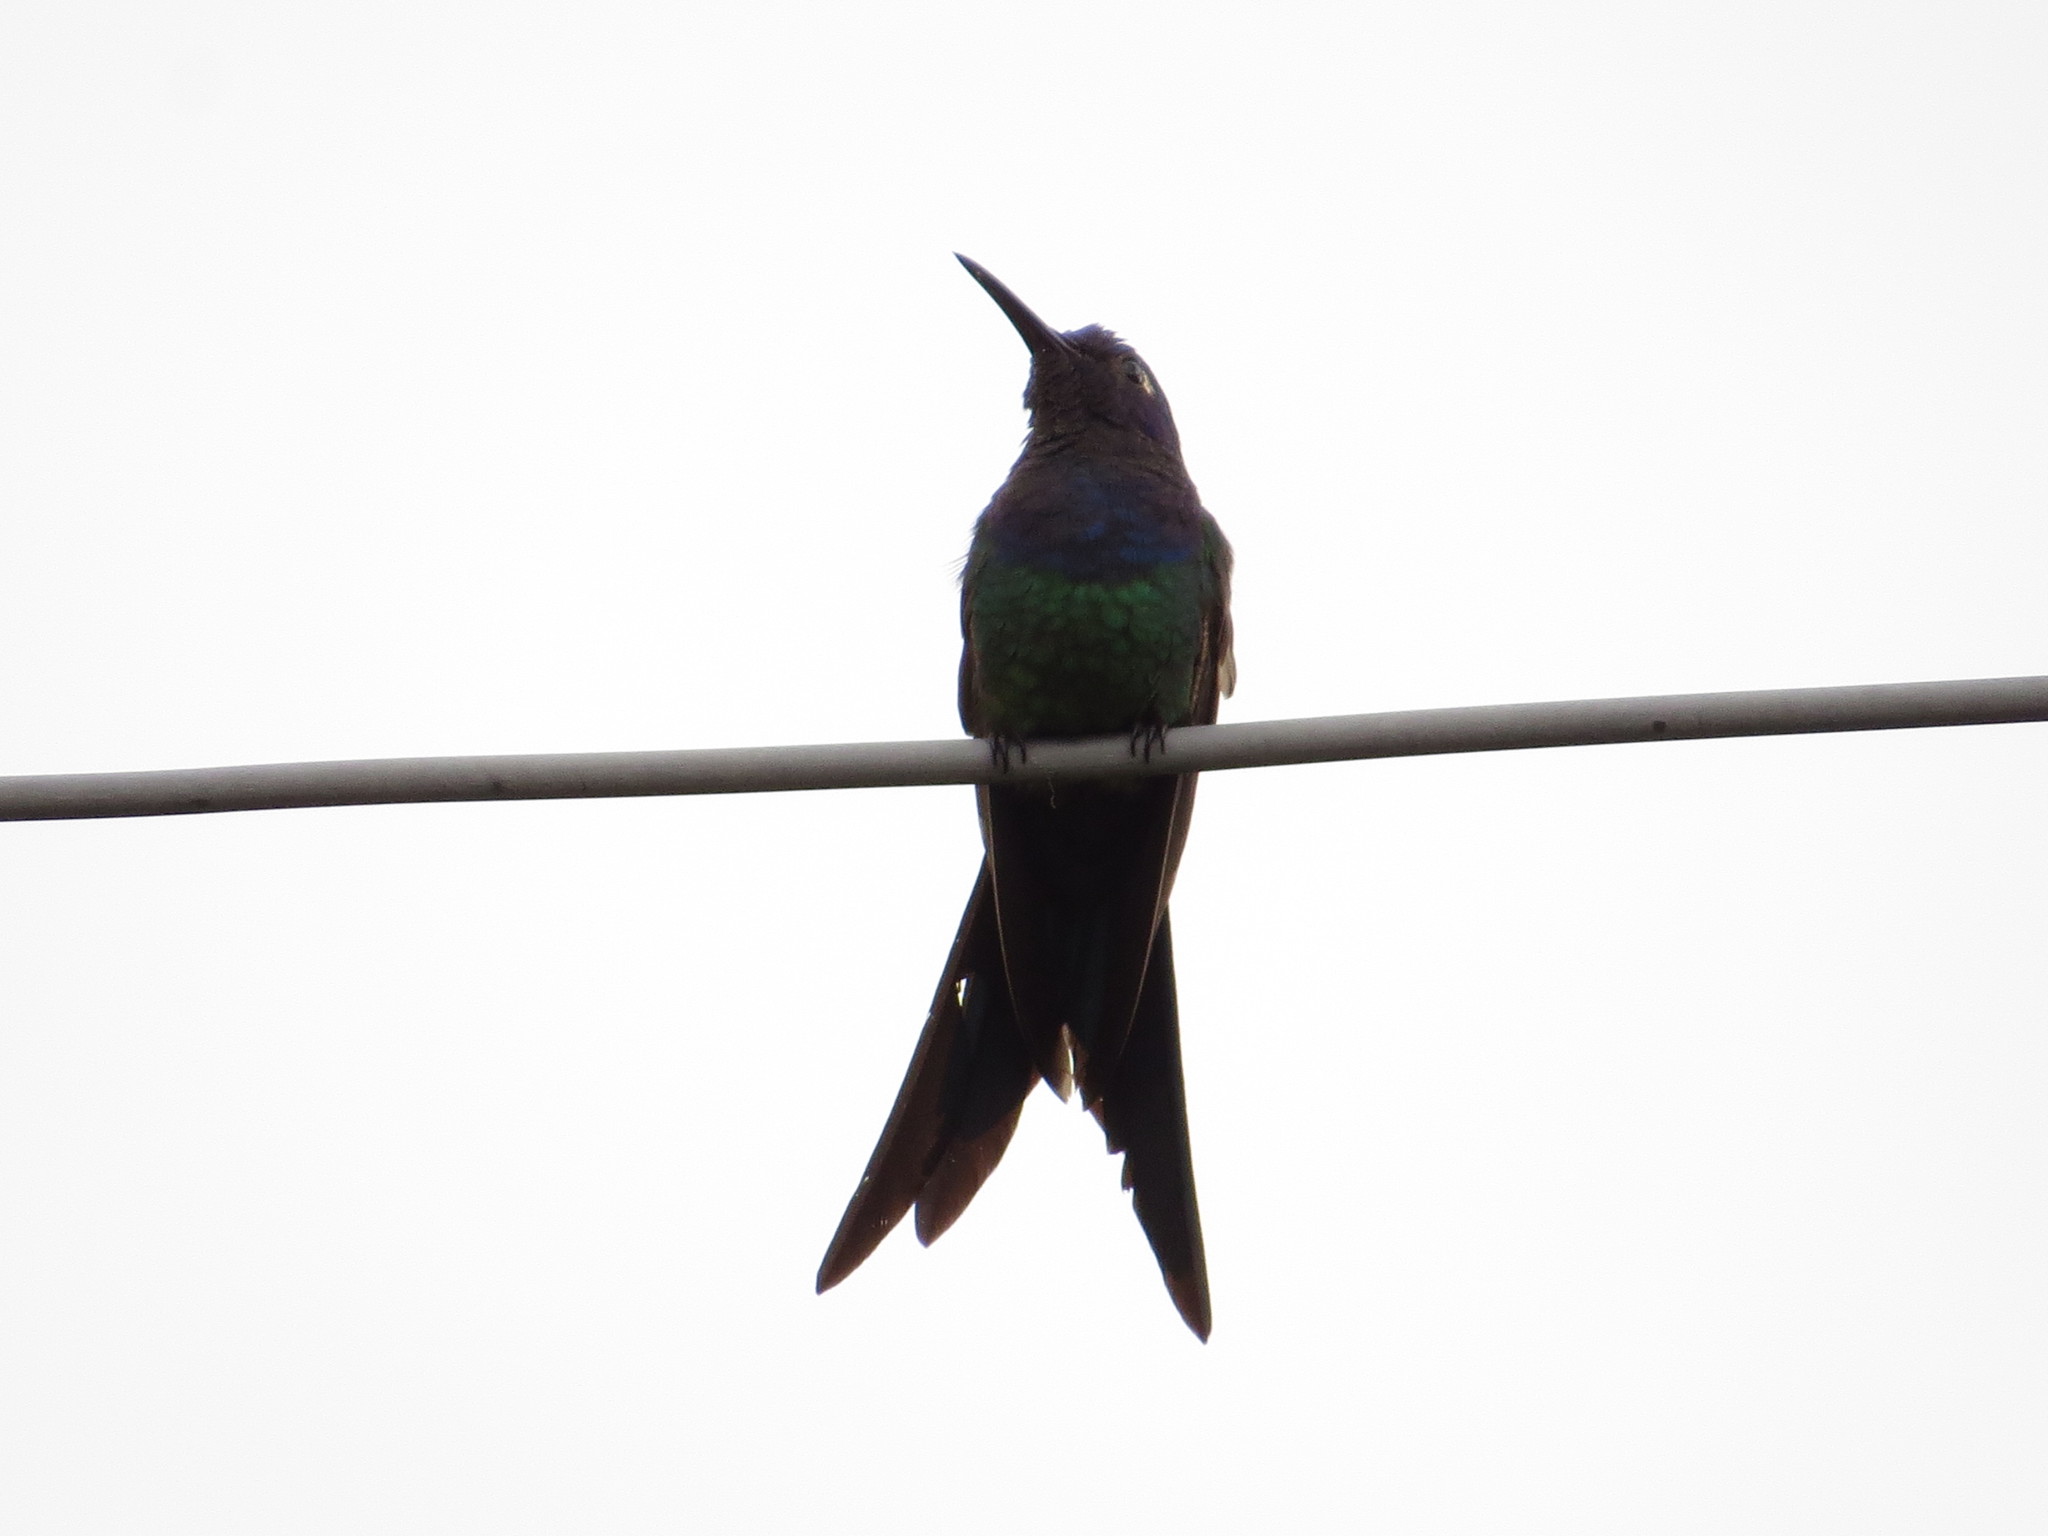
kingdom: Animalia
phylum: Chordata
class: Aves
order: Apodiformes
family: Trochilidae
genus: Eupetomena
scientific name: Eupetomena macroura
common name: Swallow-tailed hummingbird
